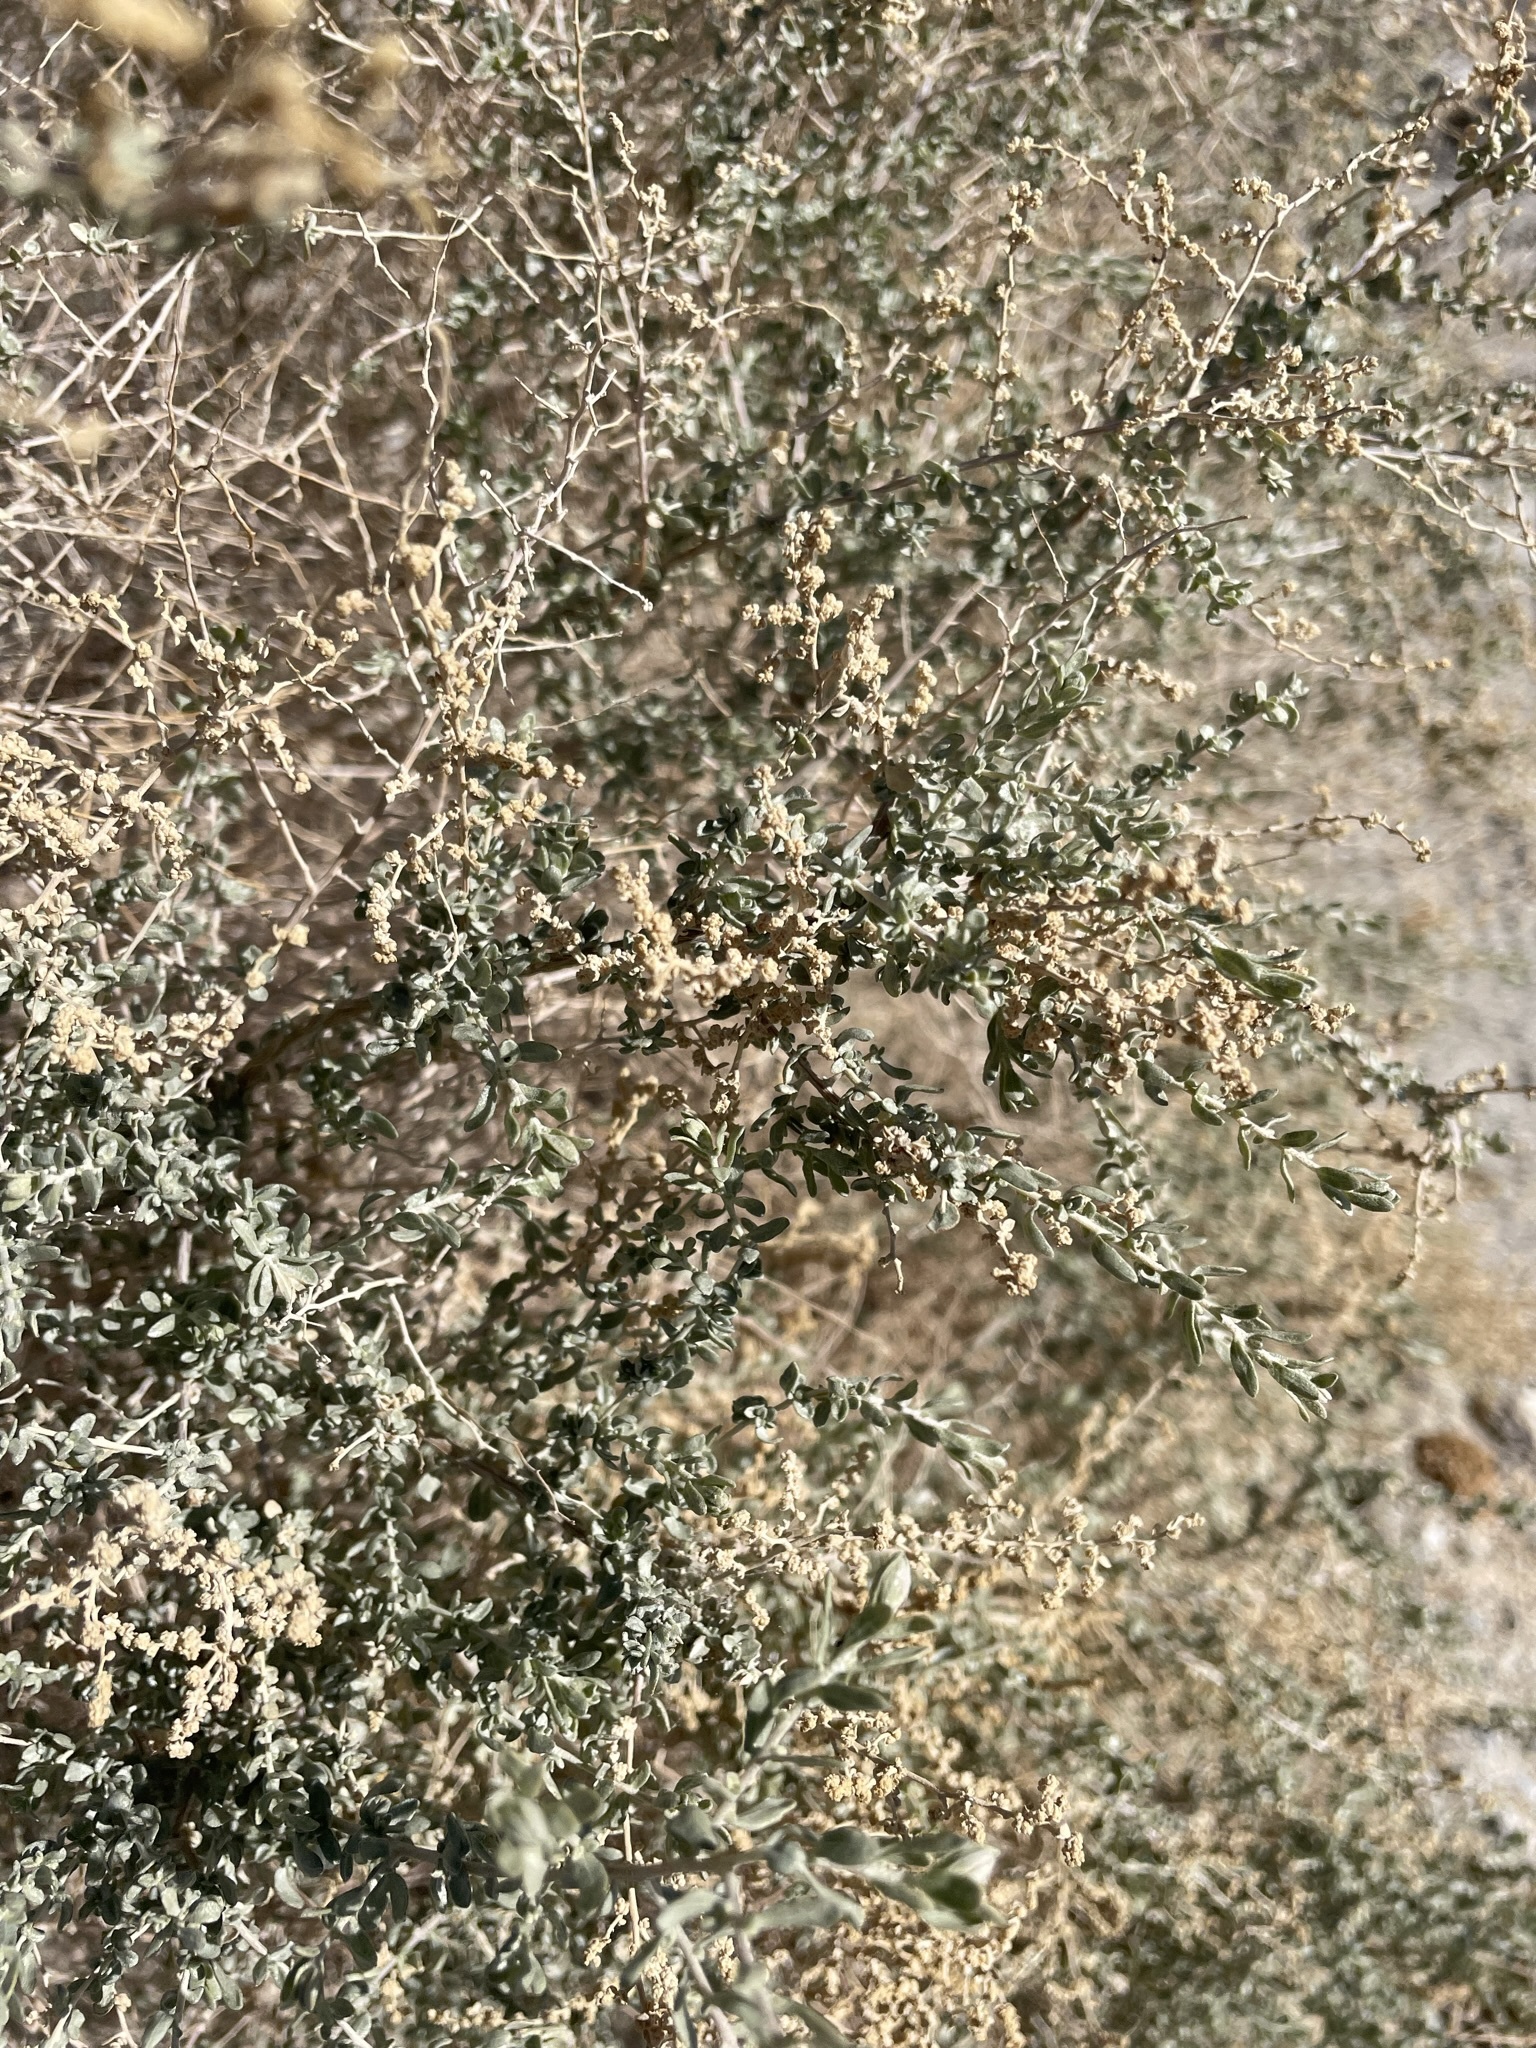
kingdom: Plantae
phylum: Tracheophyta
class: Magnoliopsida
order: Caryophyllales
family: Amaranthaceae
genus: Atriplex
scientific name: Atriplex polycarpa
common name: Desert saltbush
